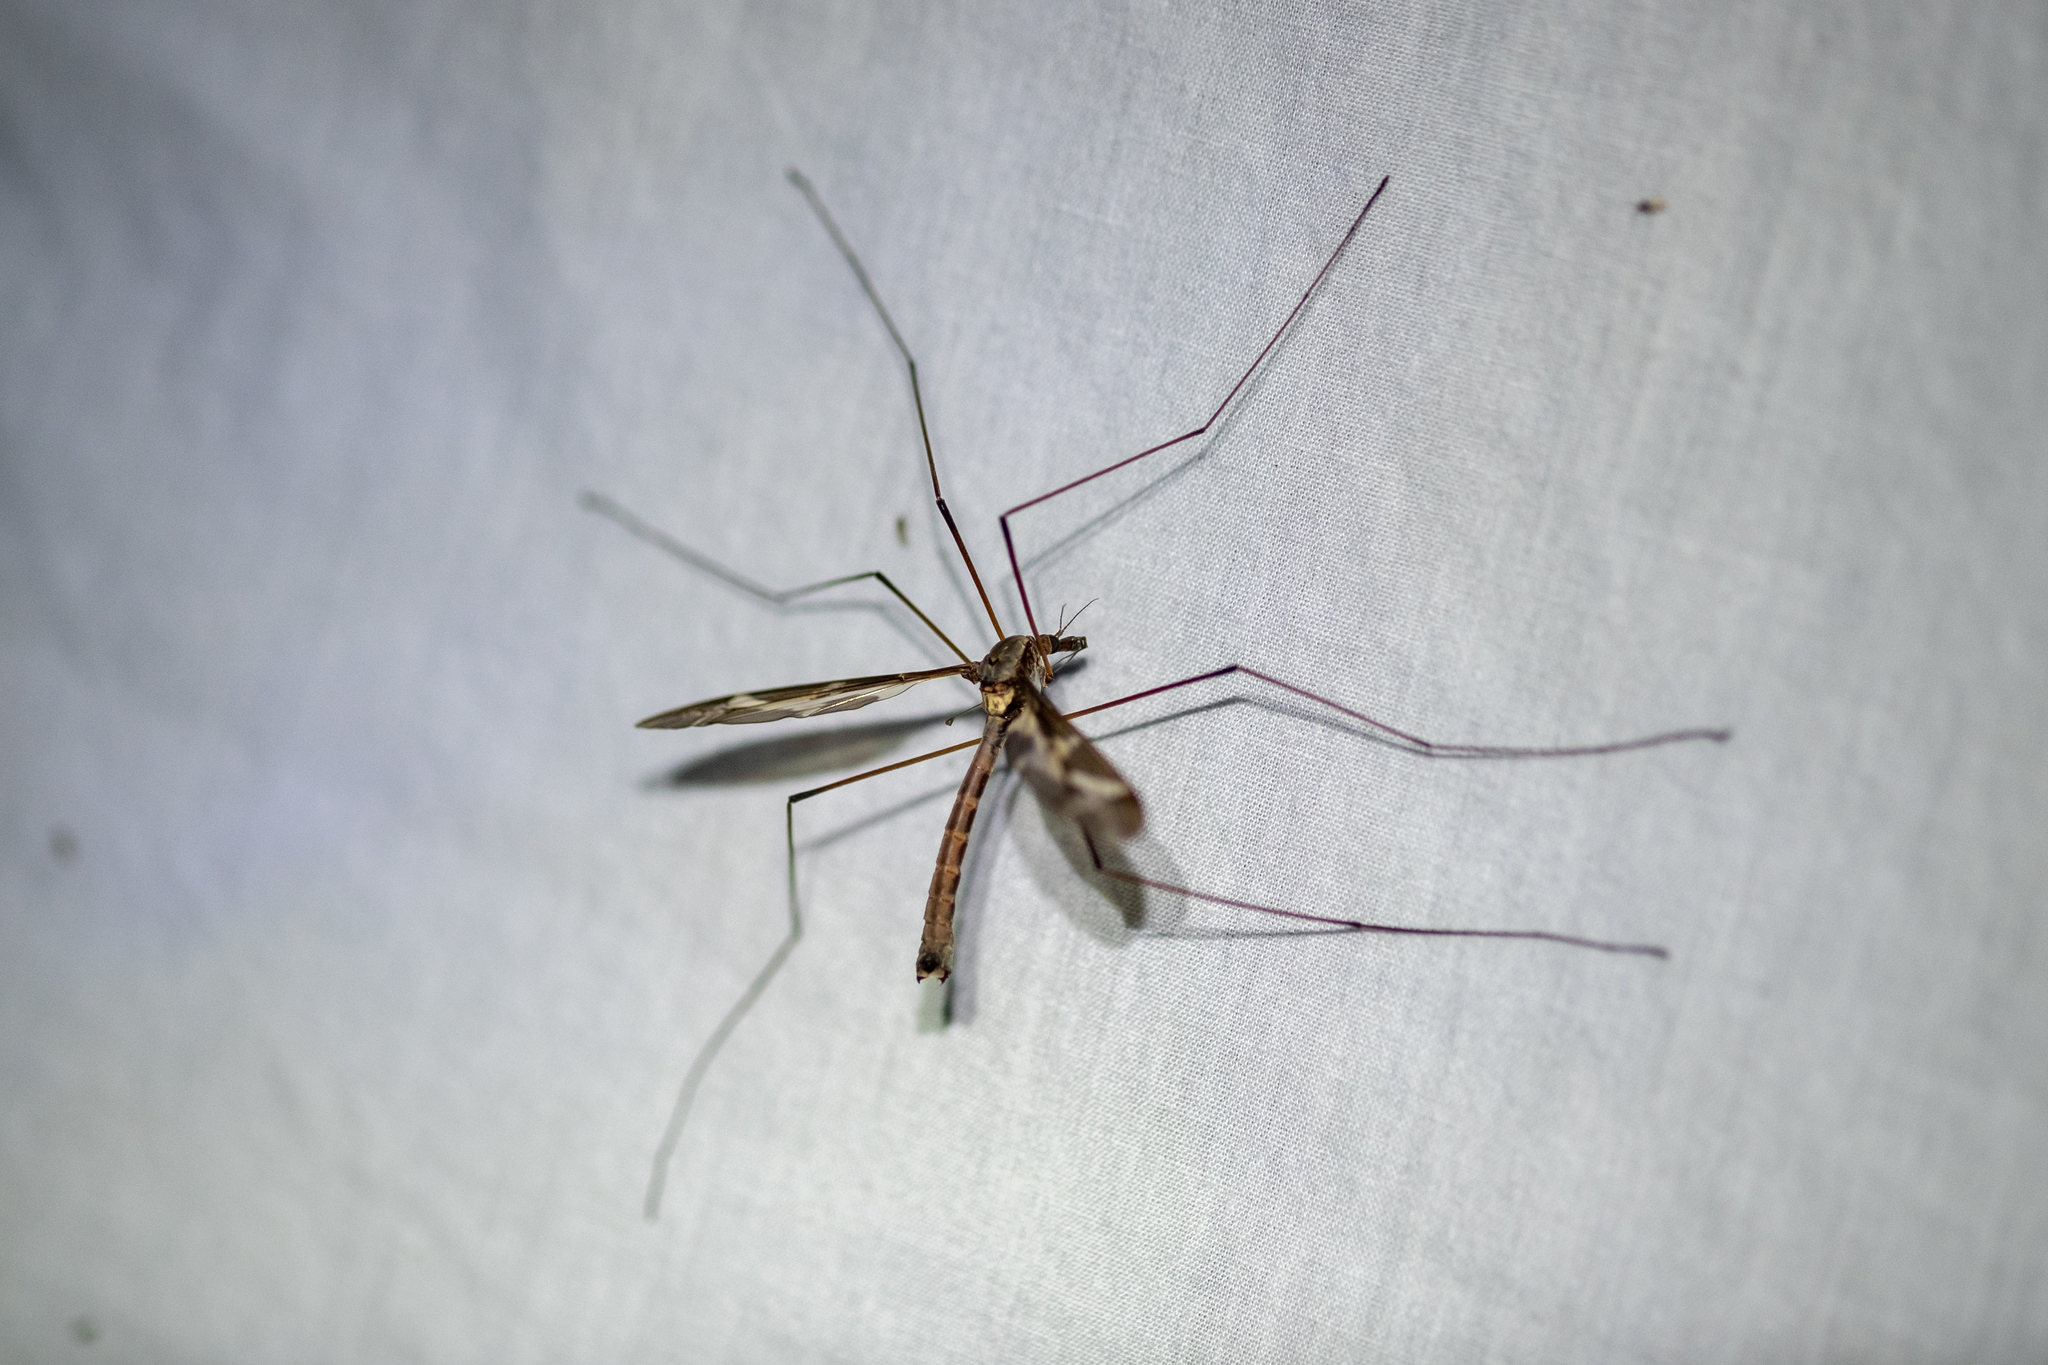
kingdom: Animalia
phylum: Arthropoda
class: Insecta
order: Diptera
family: Tipulidae
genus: Tipula
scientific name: Tipula maxima
